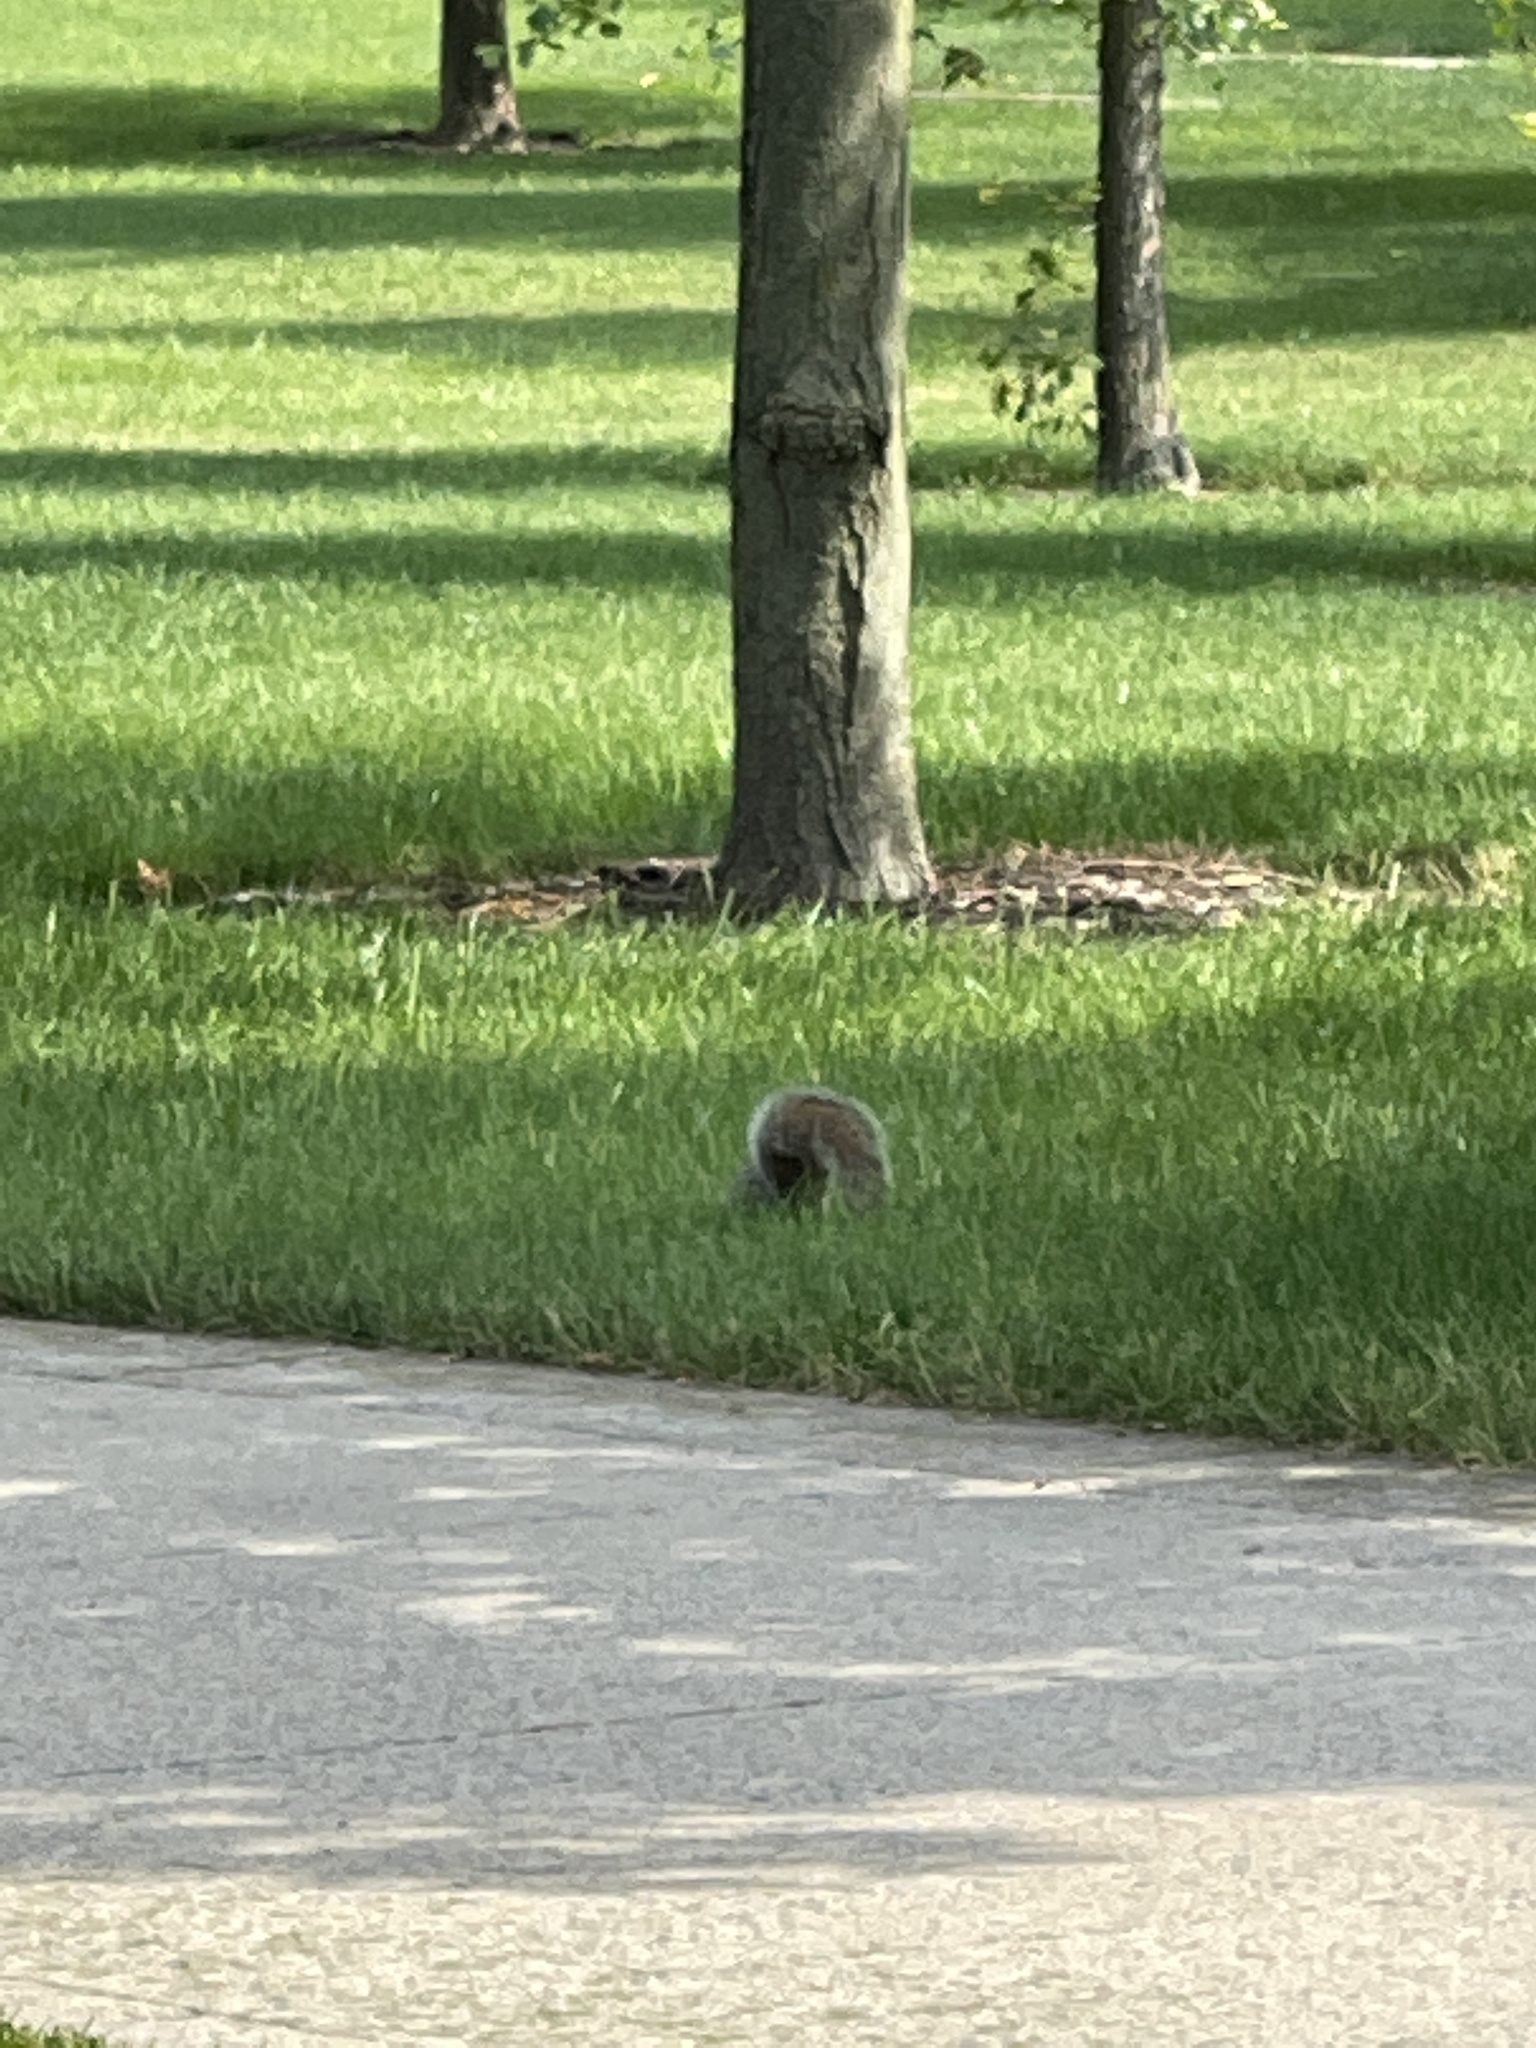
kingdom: Animalia
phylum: Chordata
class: Mammalia
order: Rodentia
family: Sciuridae
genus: Sciurus
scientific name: Sciurus carolinensis
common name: Eastern gray squirrel
